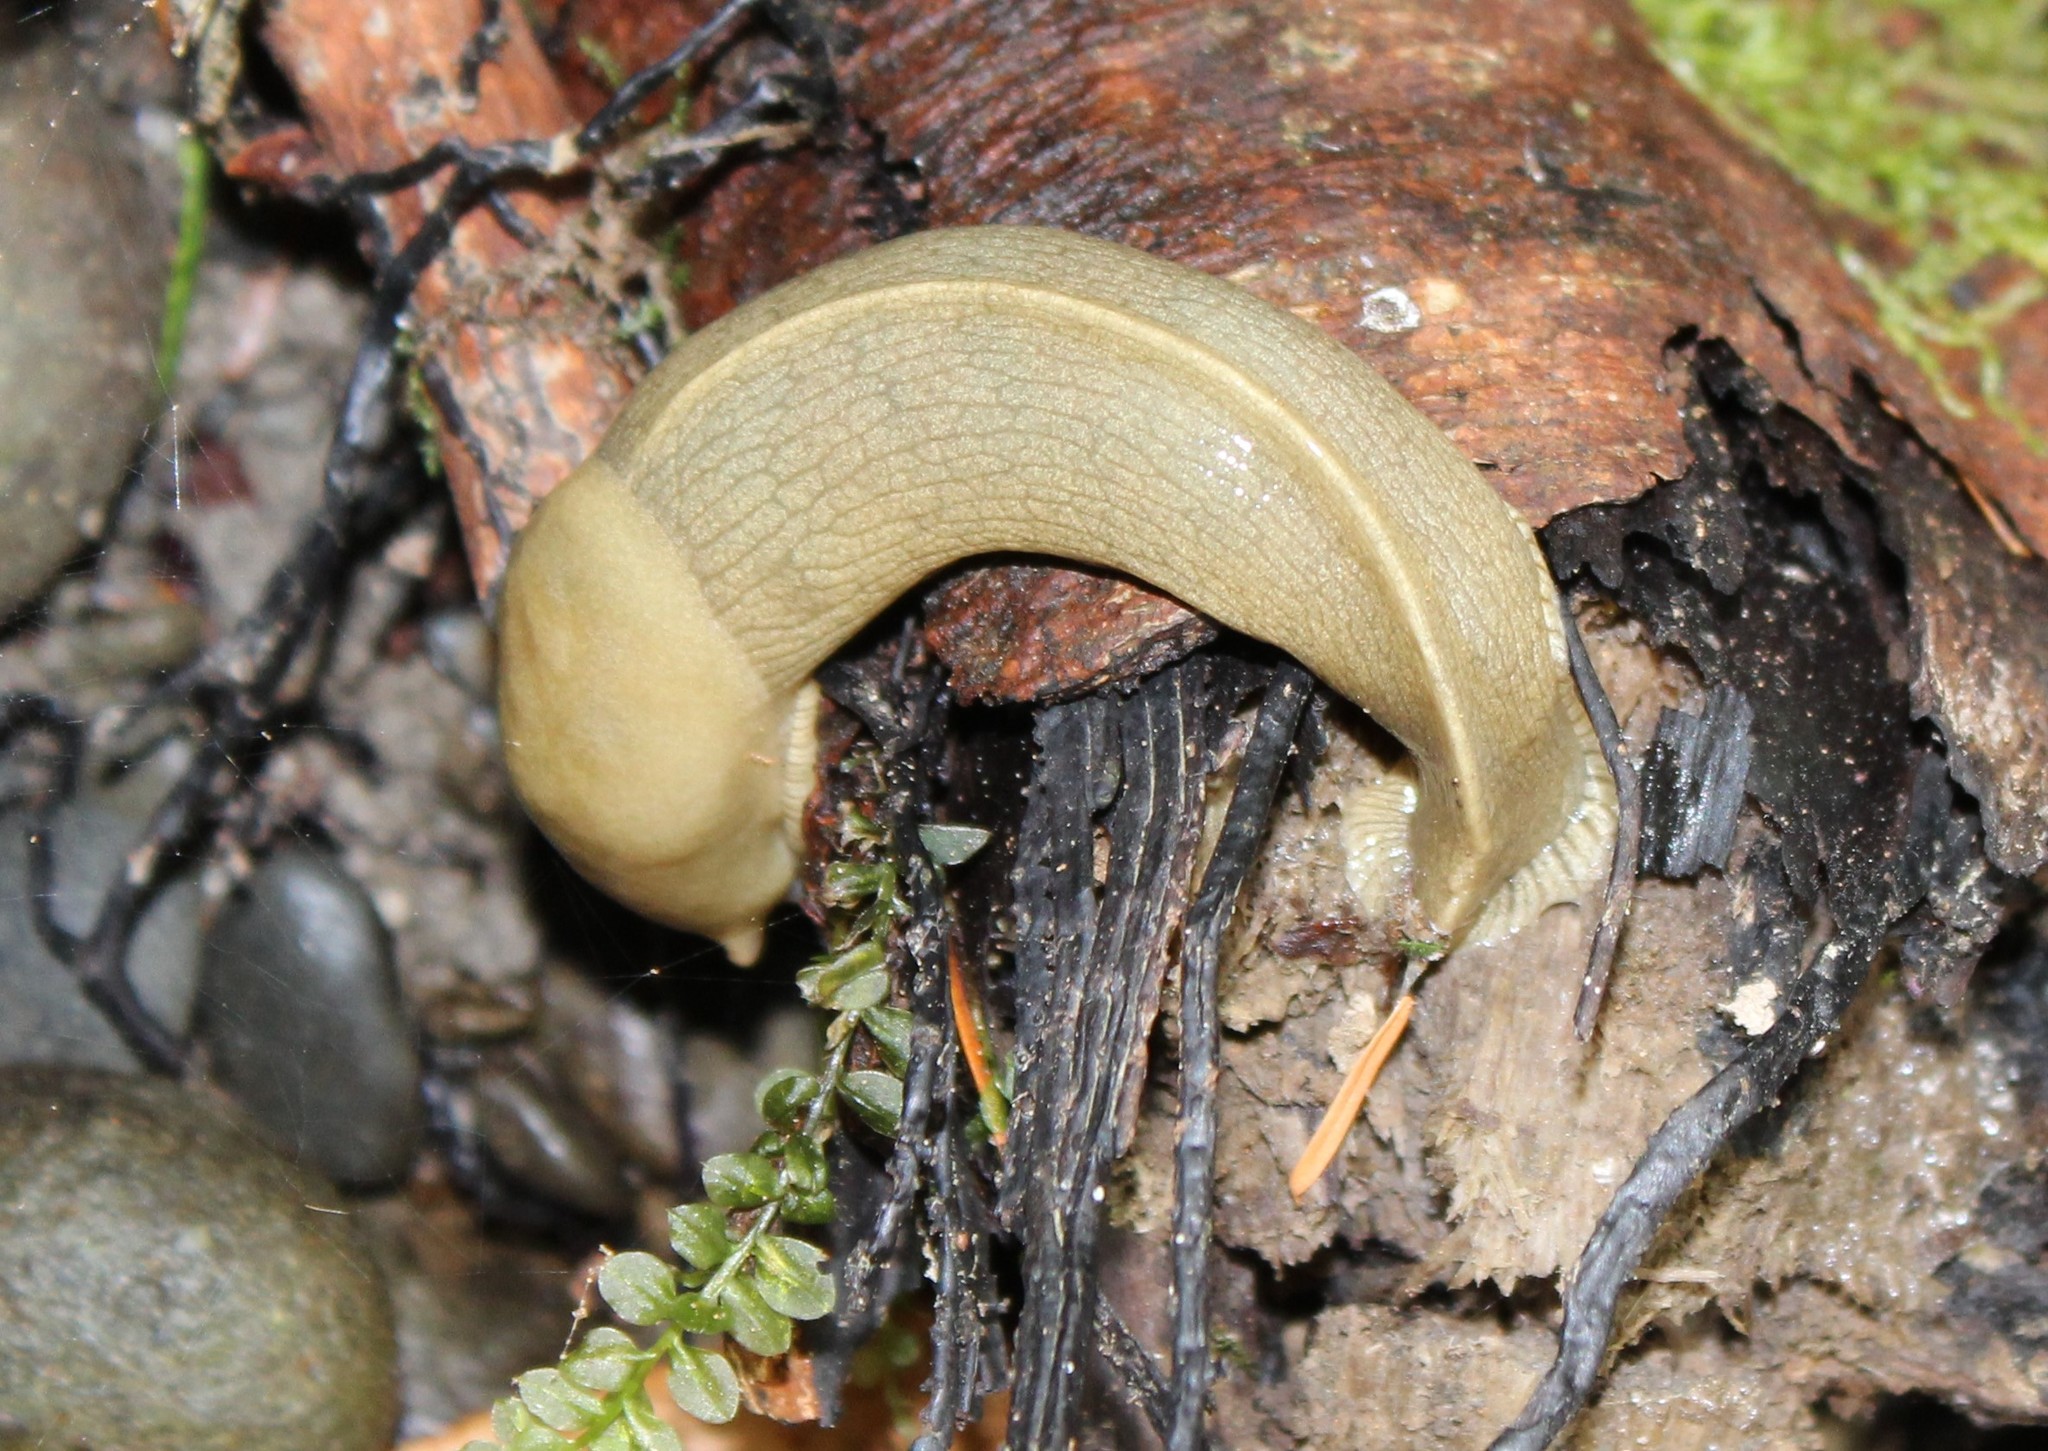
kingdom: Animalia
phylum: Mollusca
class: Gastropoda
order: Stylommatophora
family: Ariolimacidae
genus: Ariolimax
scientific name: Ariolimax columbianus
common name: Pacific banana slug
